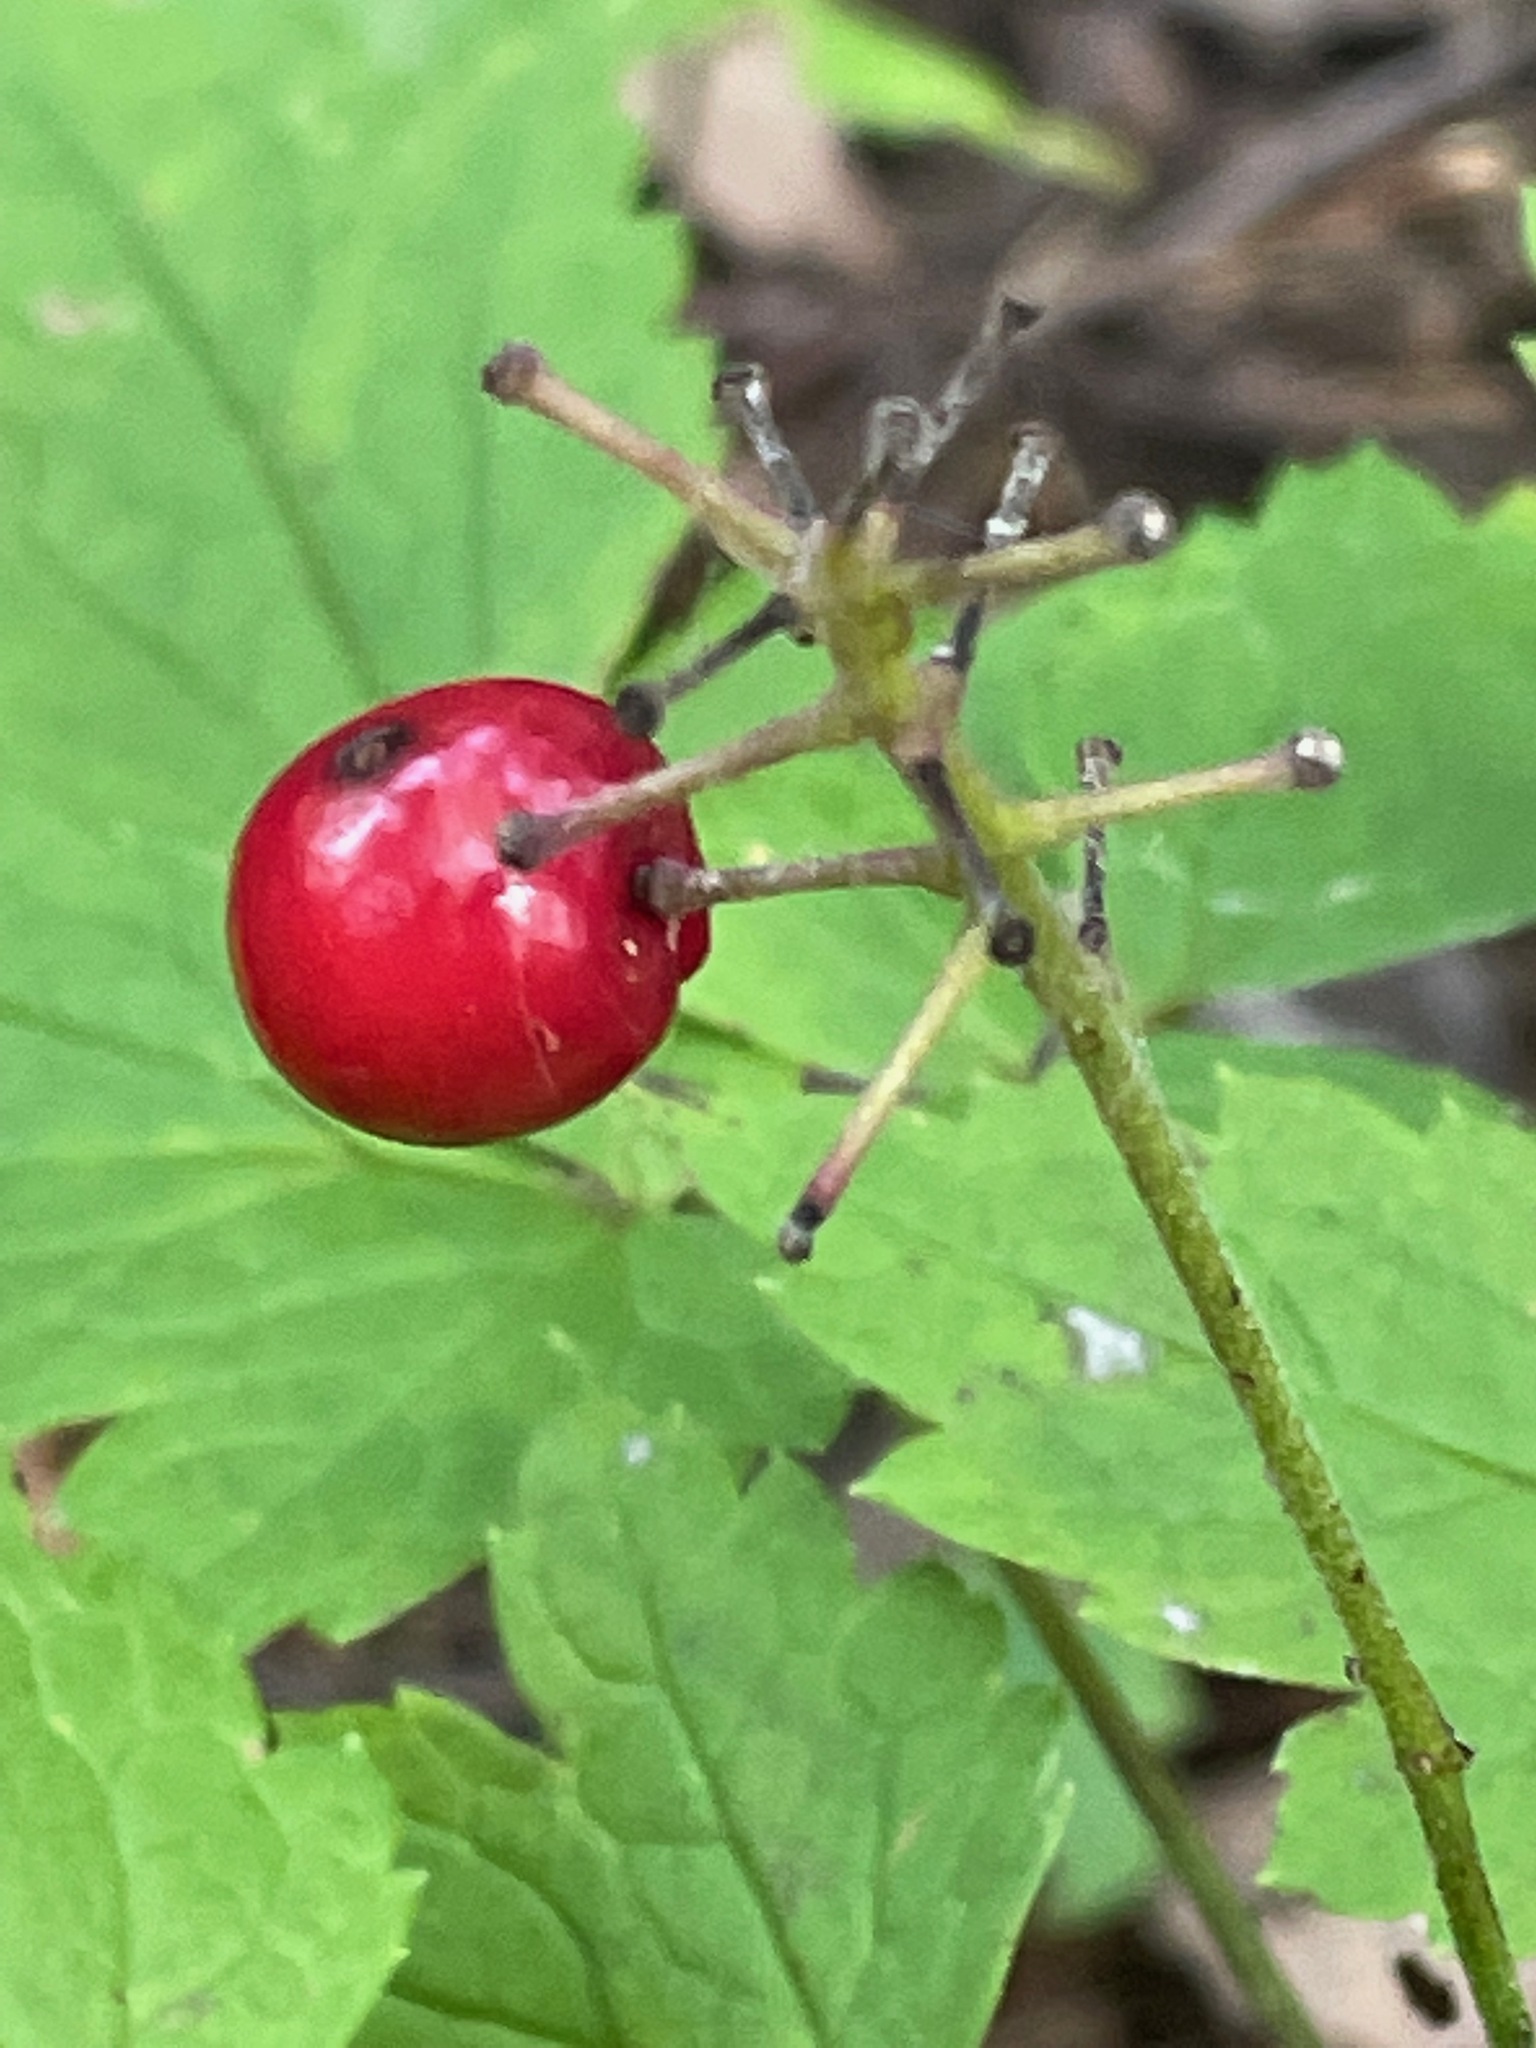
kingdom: Plantae
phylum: Tracheophyta
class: Magnoliopsida
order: Ranunculales
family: Ranunculaceae
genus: Actaea
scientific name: Actaea rubra
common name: Red baneberry
